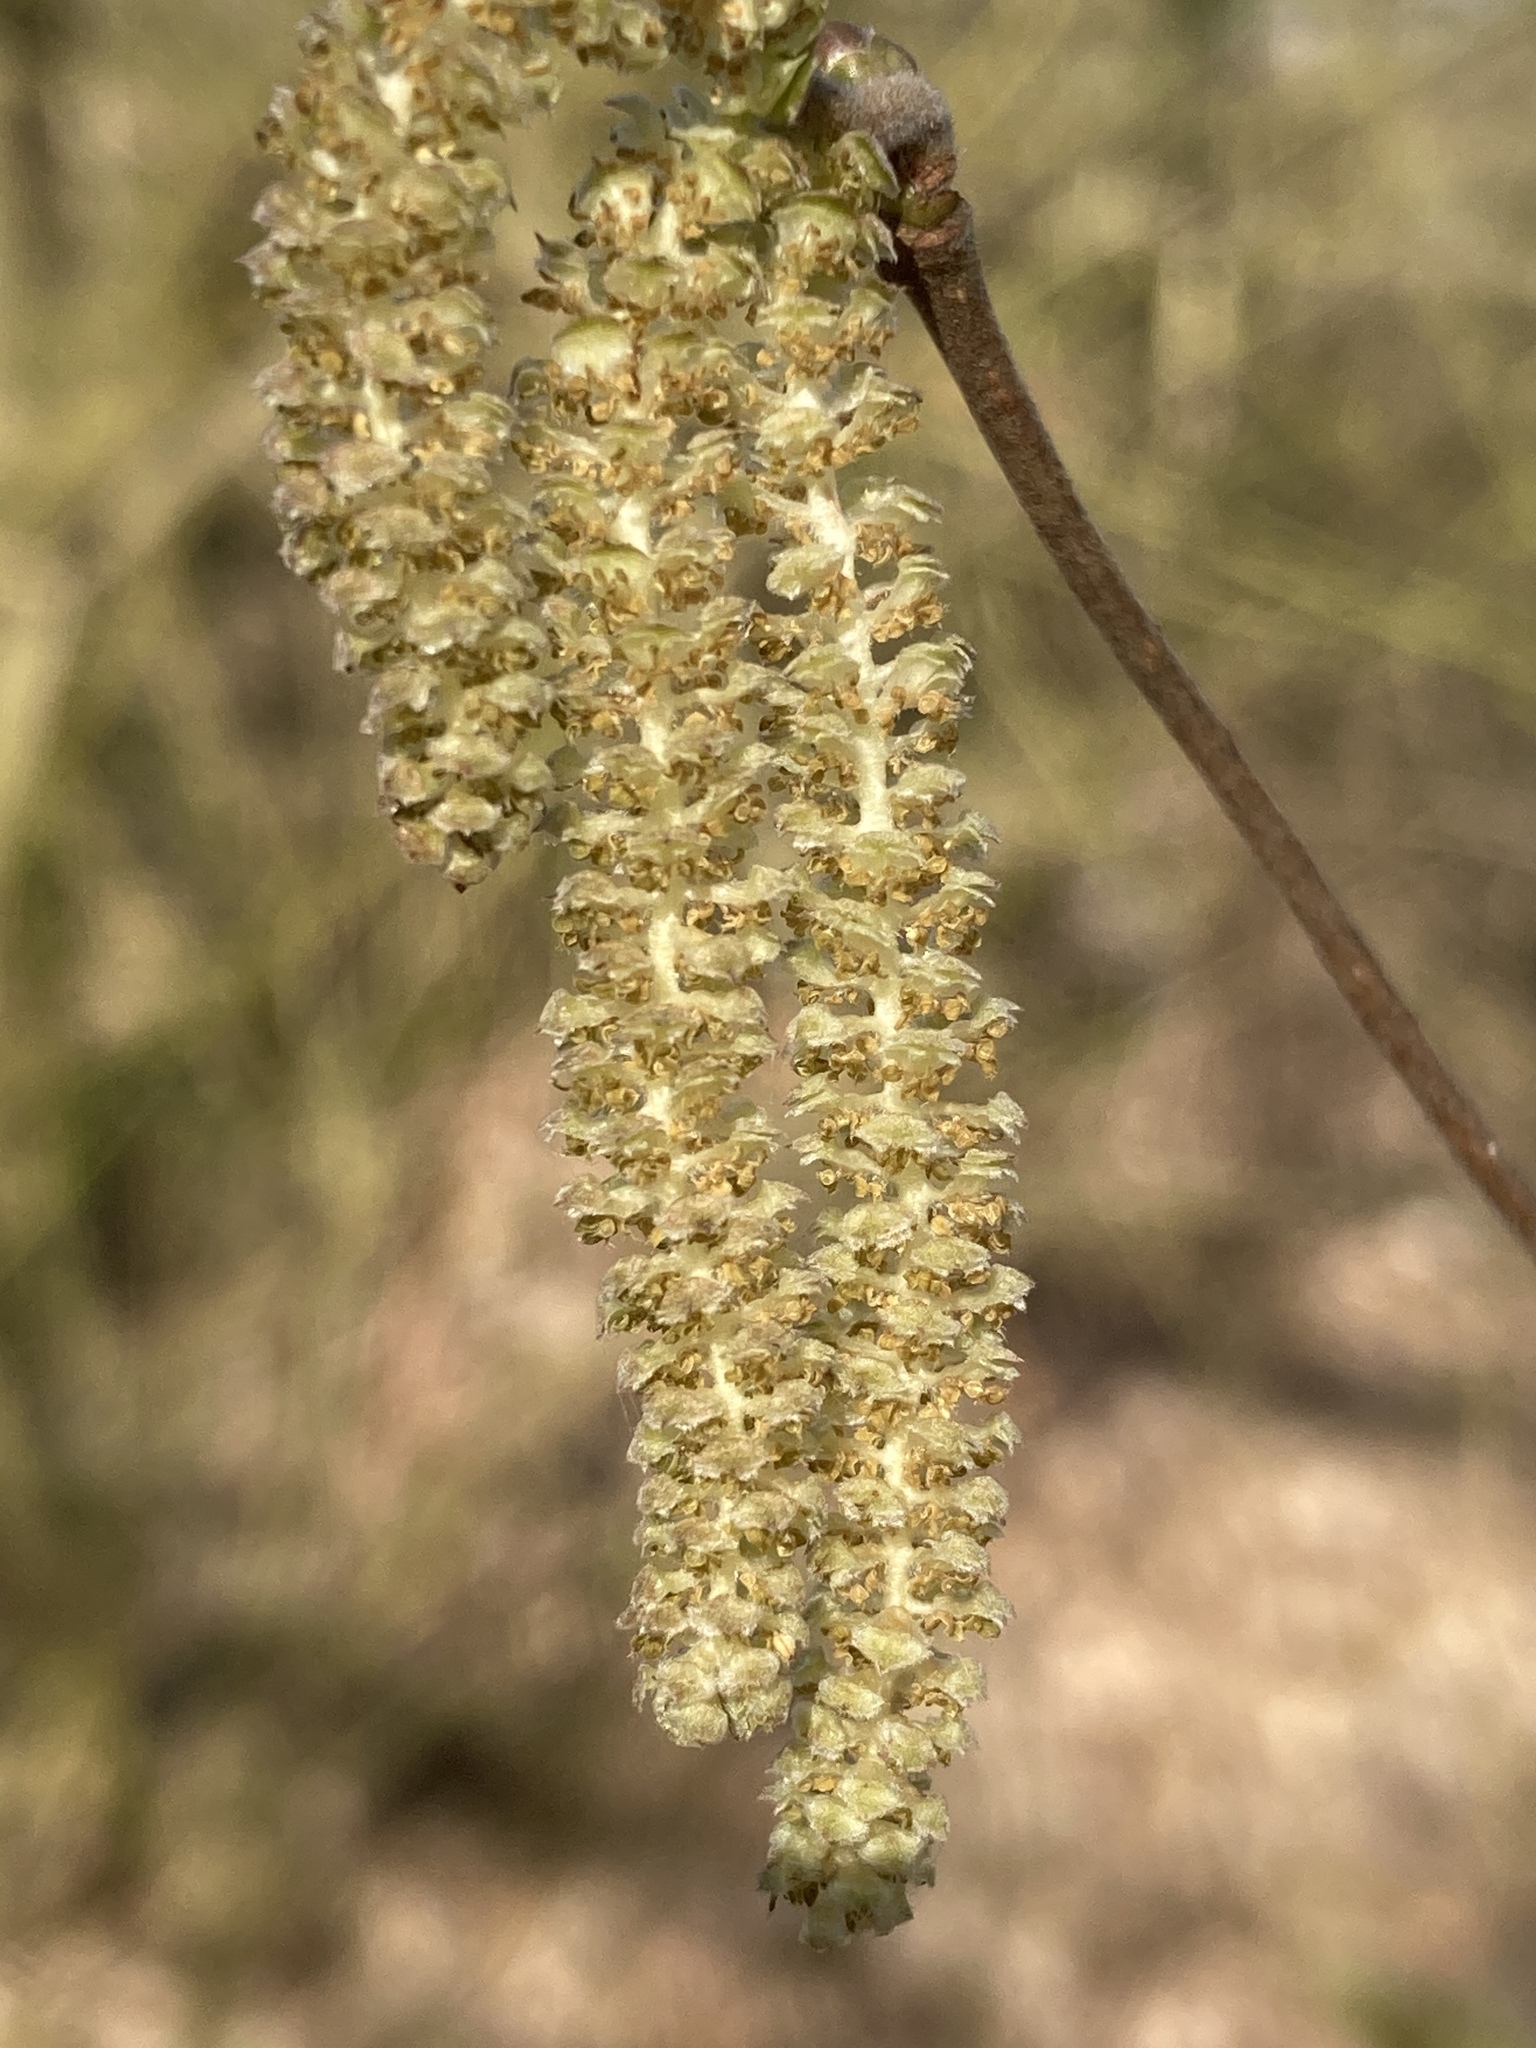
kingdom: Plantae
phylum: Tracheophyta
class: Magnoliopsida
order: Fagales
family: Betulaceae
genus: Corylus
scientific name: Corylus avellana
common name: European hazel
